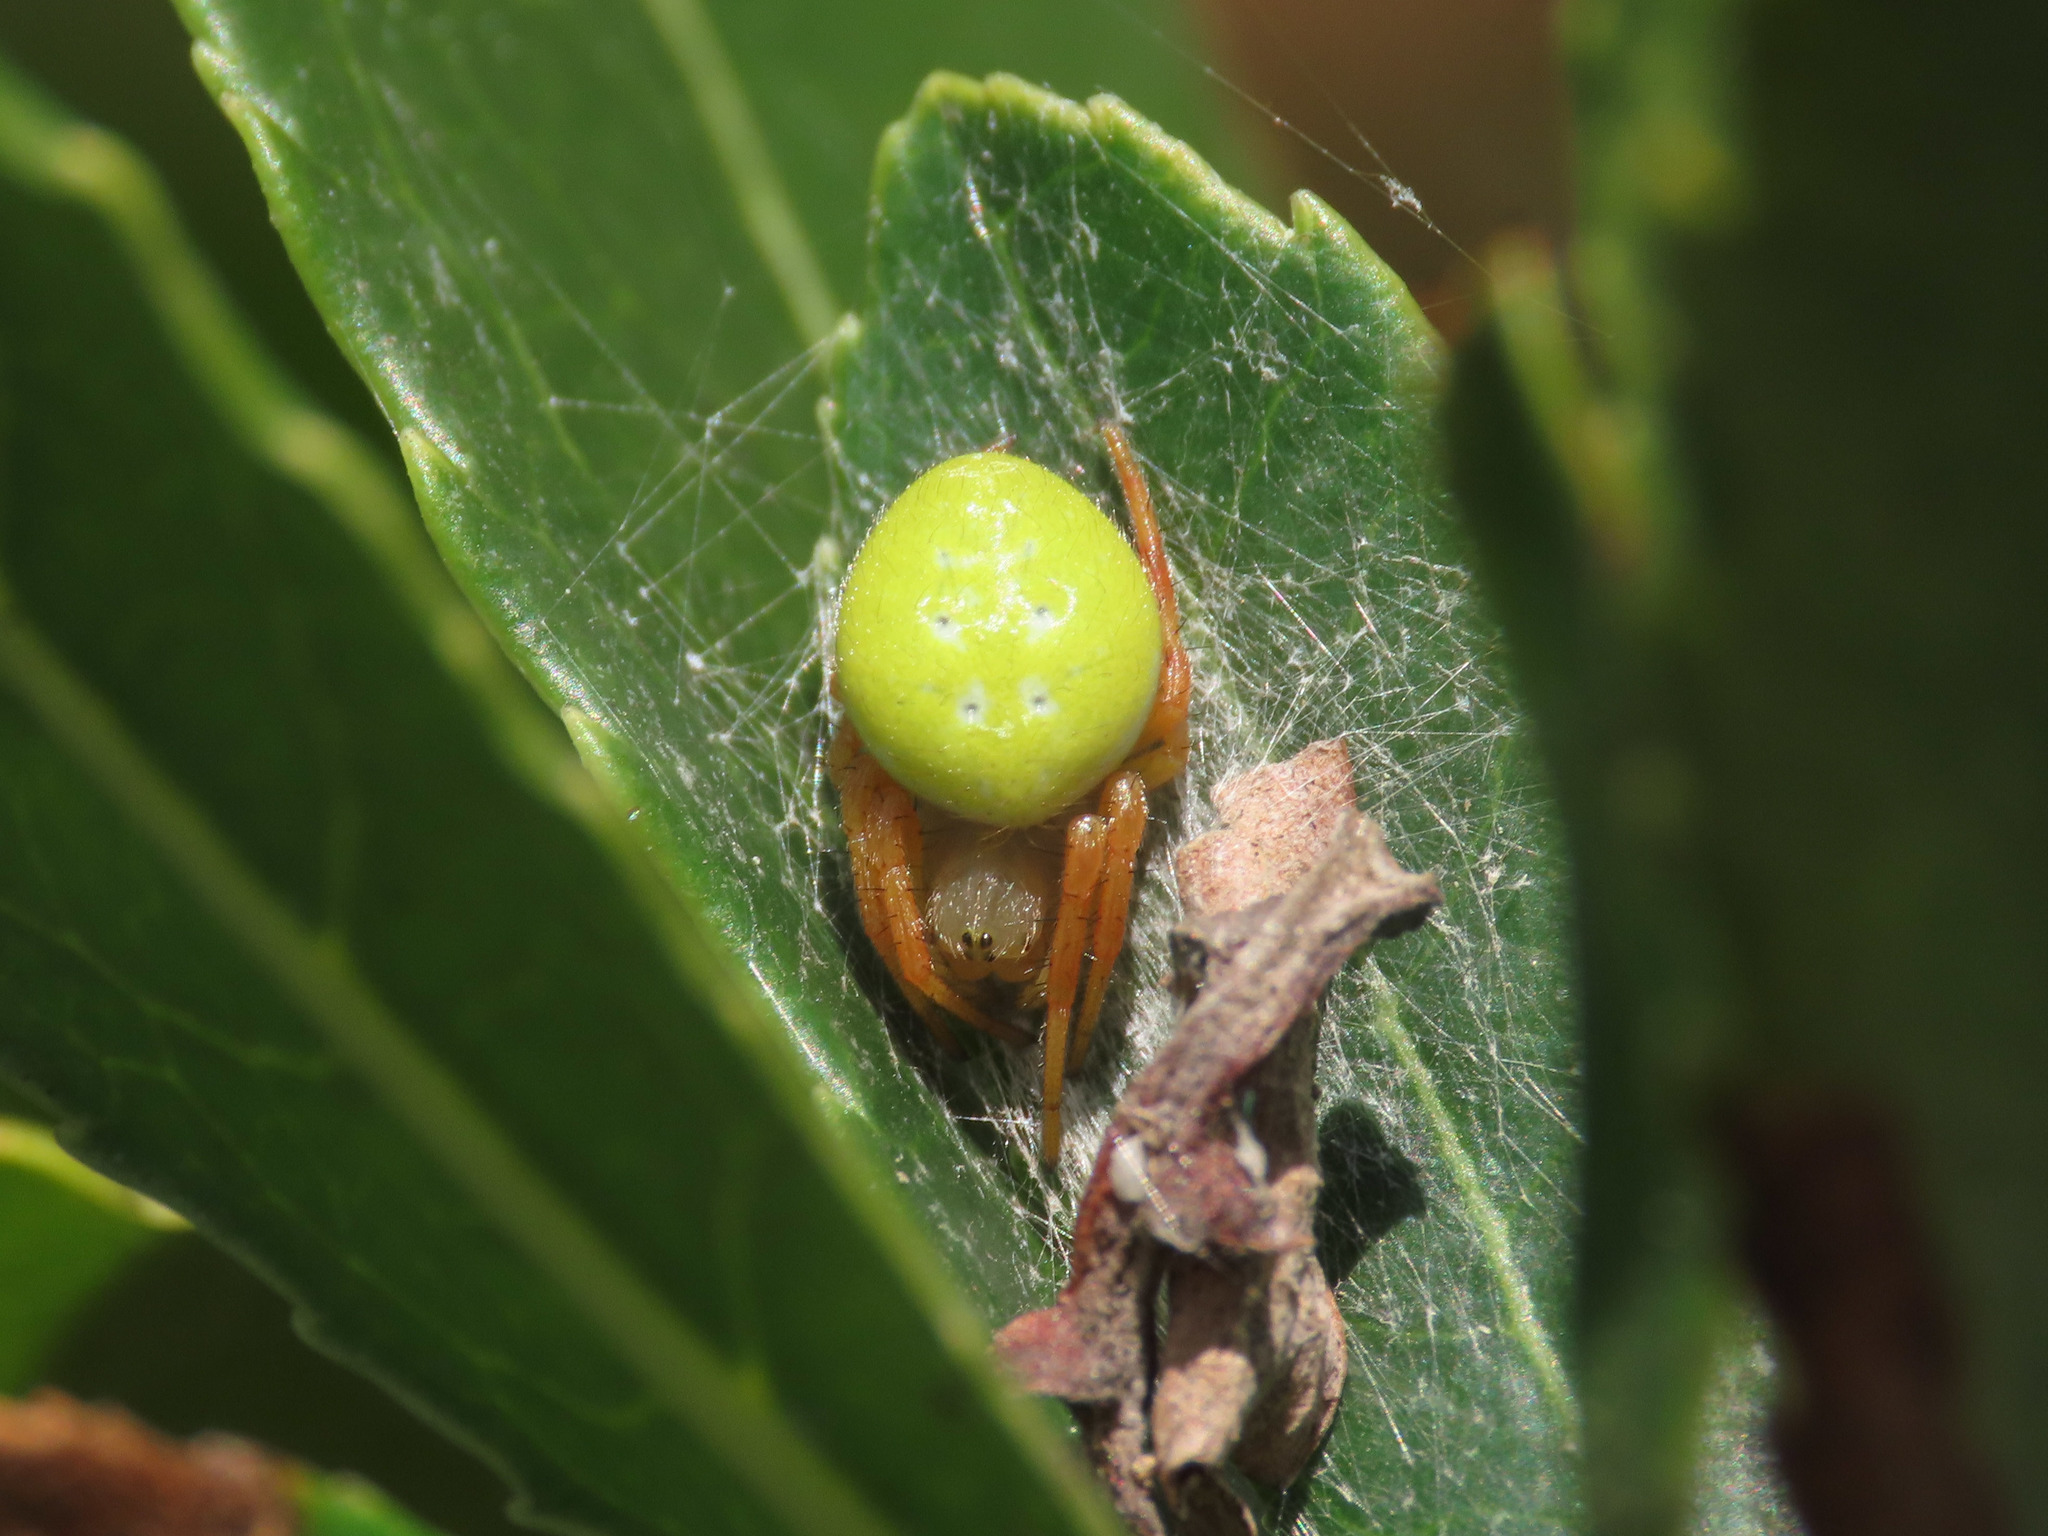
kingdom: Animalia
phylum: Arthropoda
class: Arachnida
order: Araneae
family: Araneidae
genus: Araniella
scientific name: Araniella inconspicua
